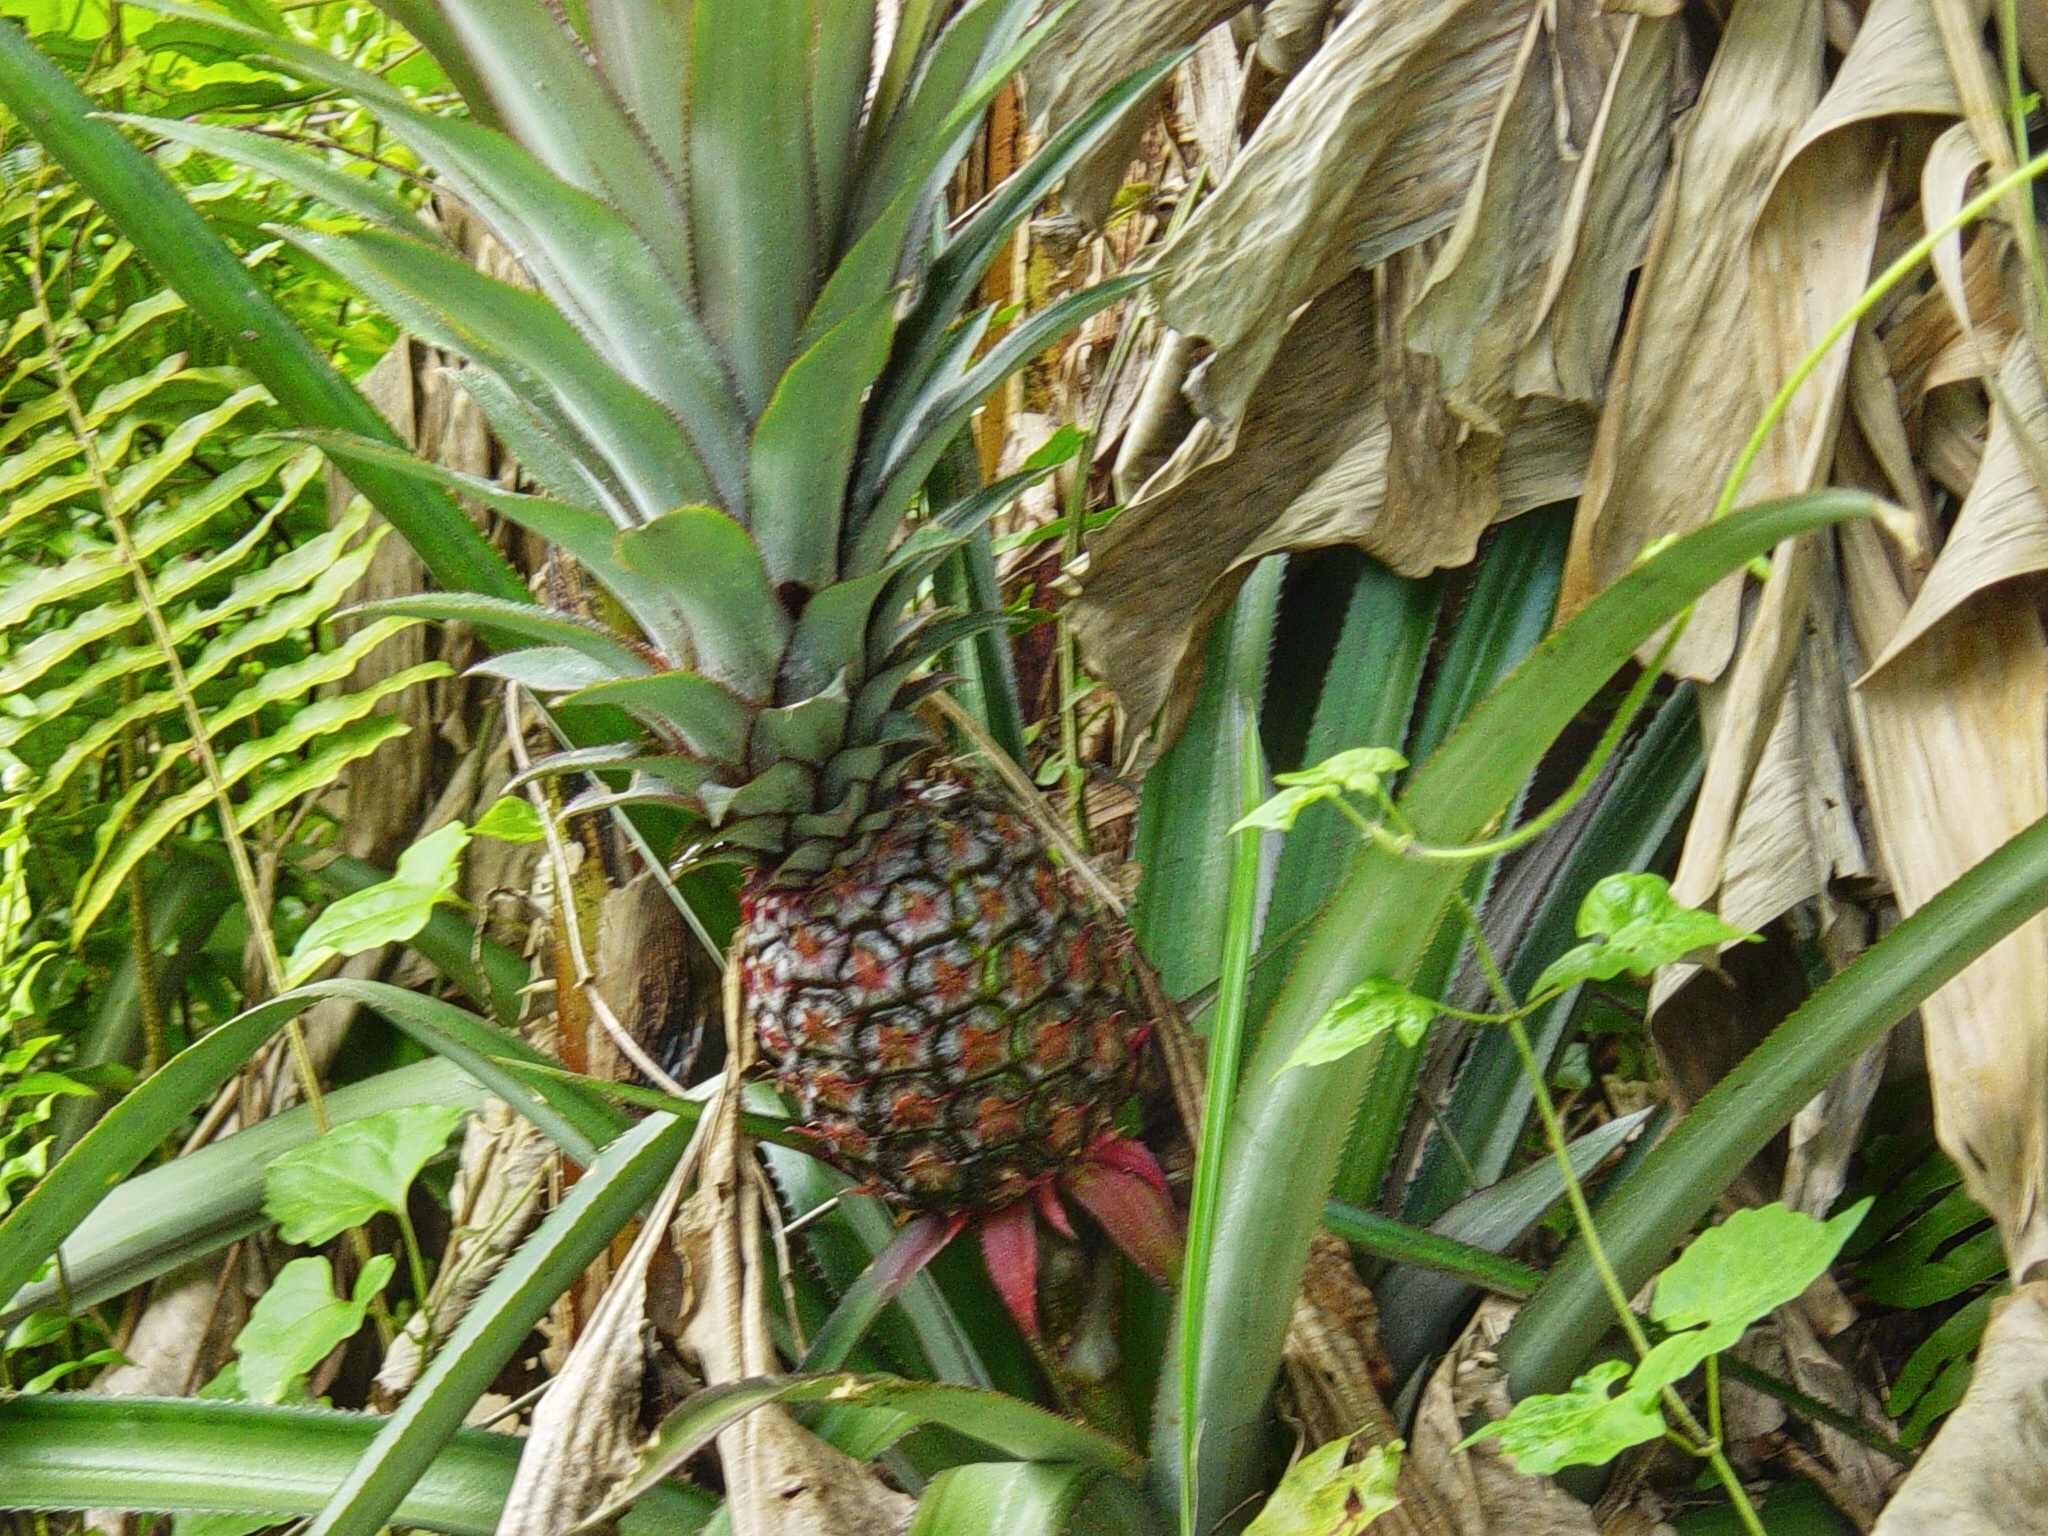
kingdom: Plantae
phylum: Tracheophyta
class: Liliopsida
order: Poales
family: Bromeliaceae
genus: Ananas
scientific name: Ananas comosus
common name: Pineapple
